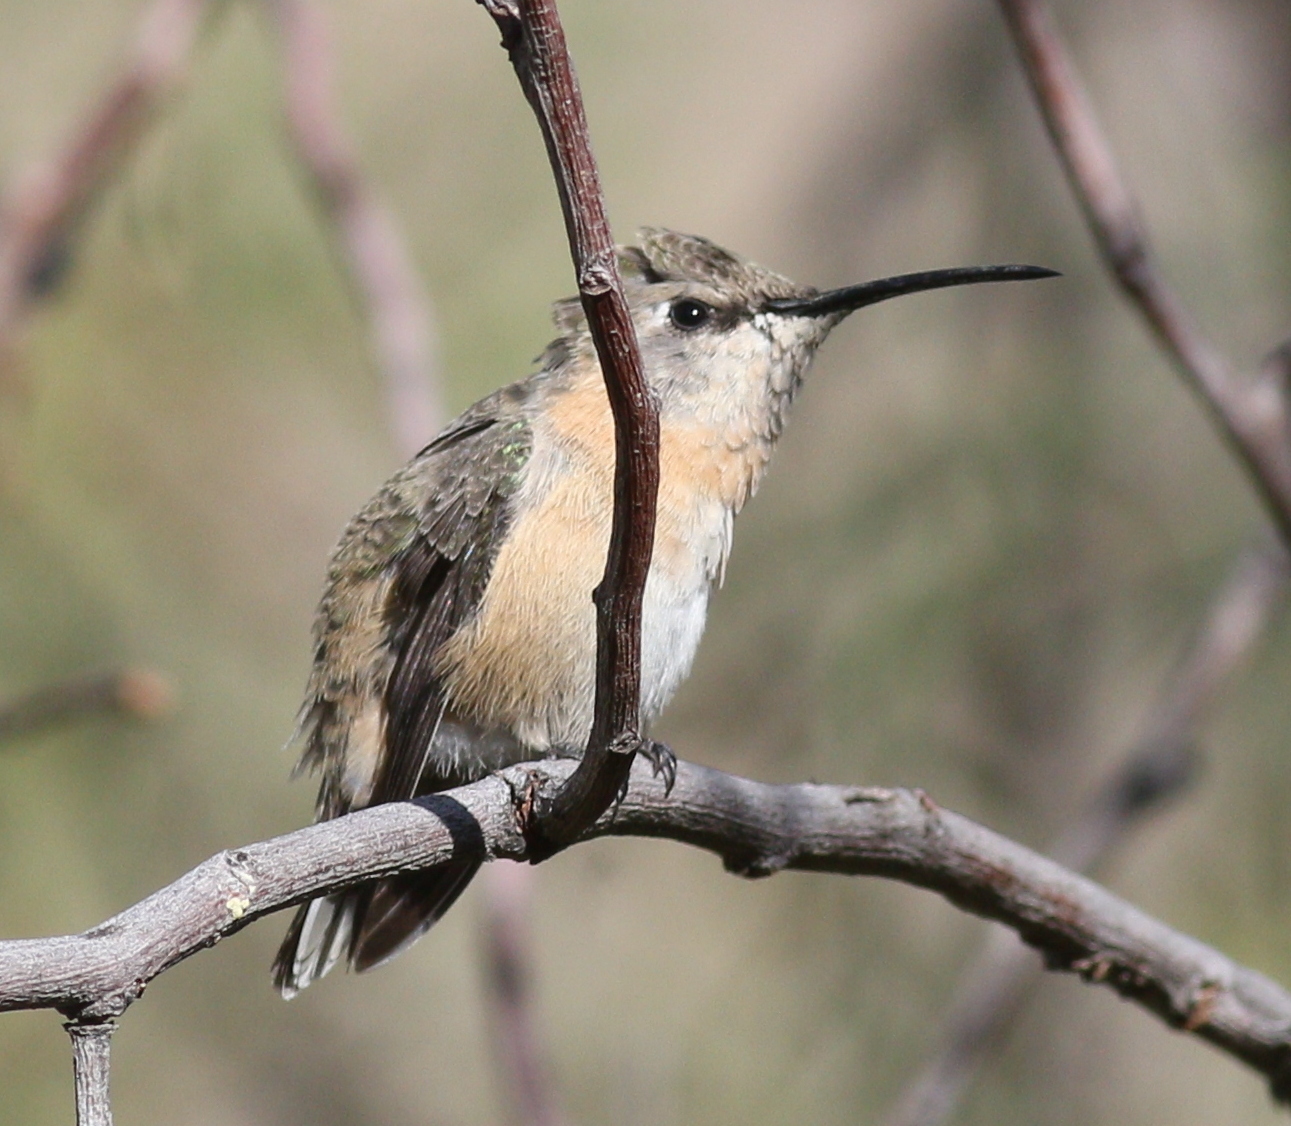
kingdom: Animalia
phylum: Chordata
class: Aves
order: Apodiformes
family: Trochilidae
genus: Myrtis
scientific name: Myrtis fanny
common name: Purple-collared woodstar
